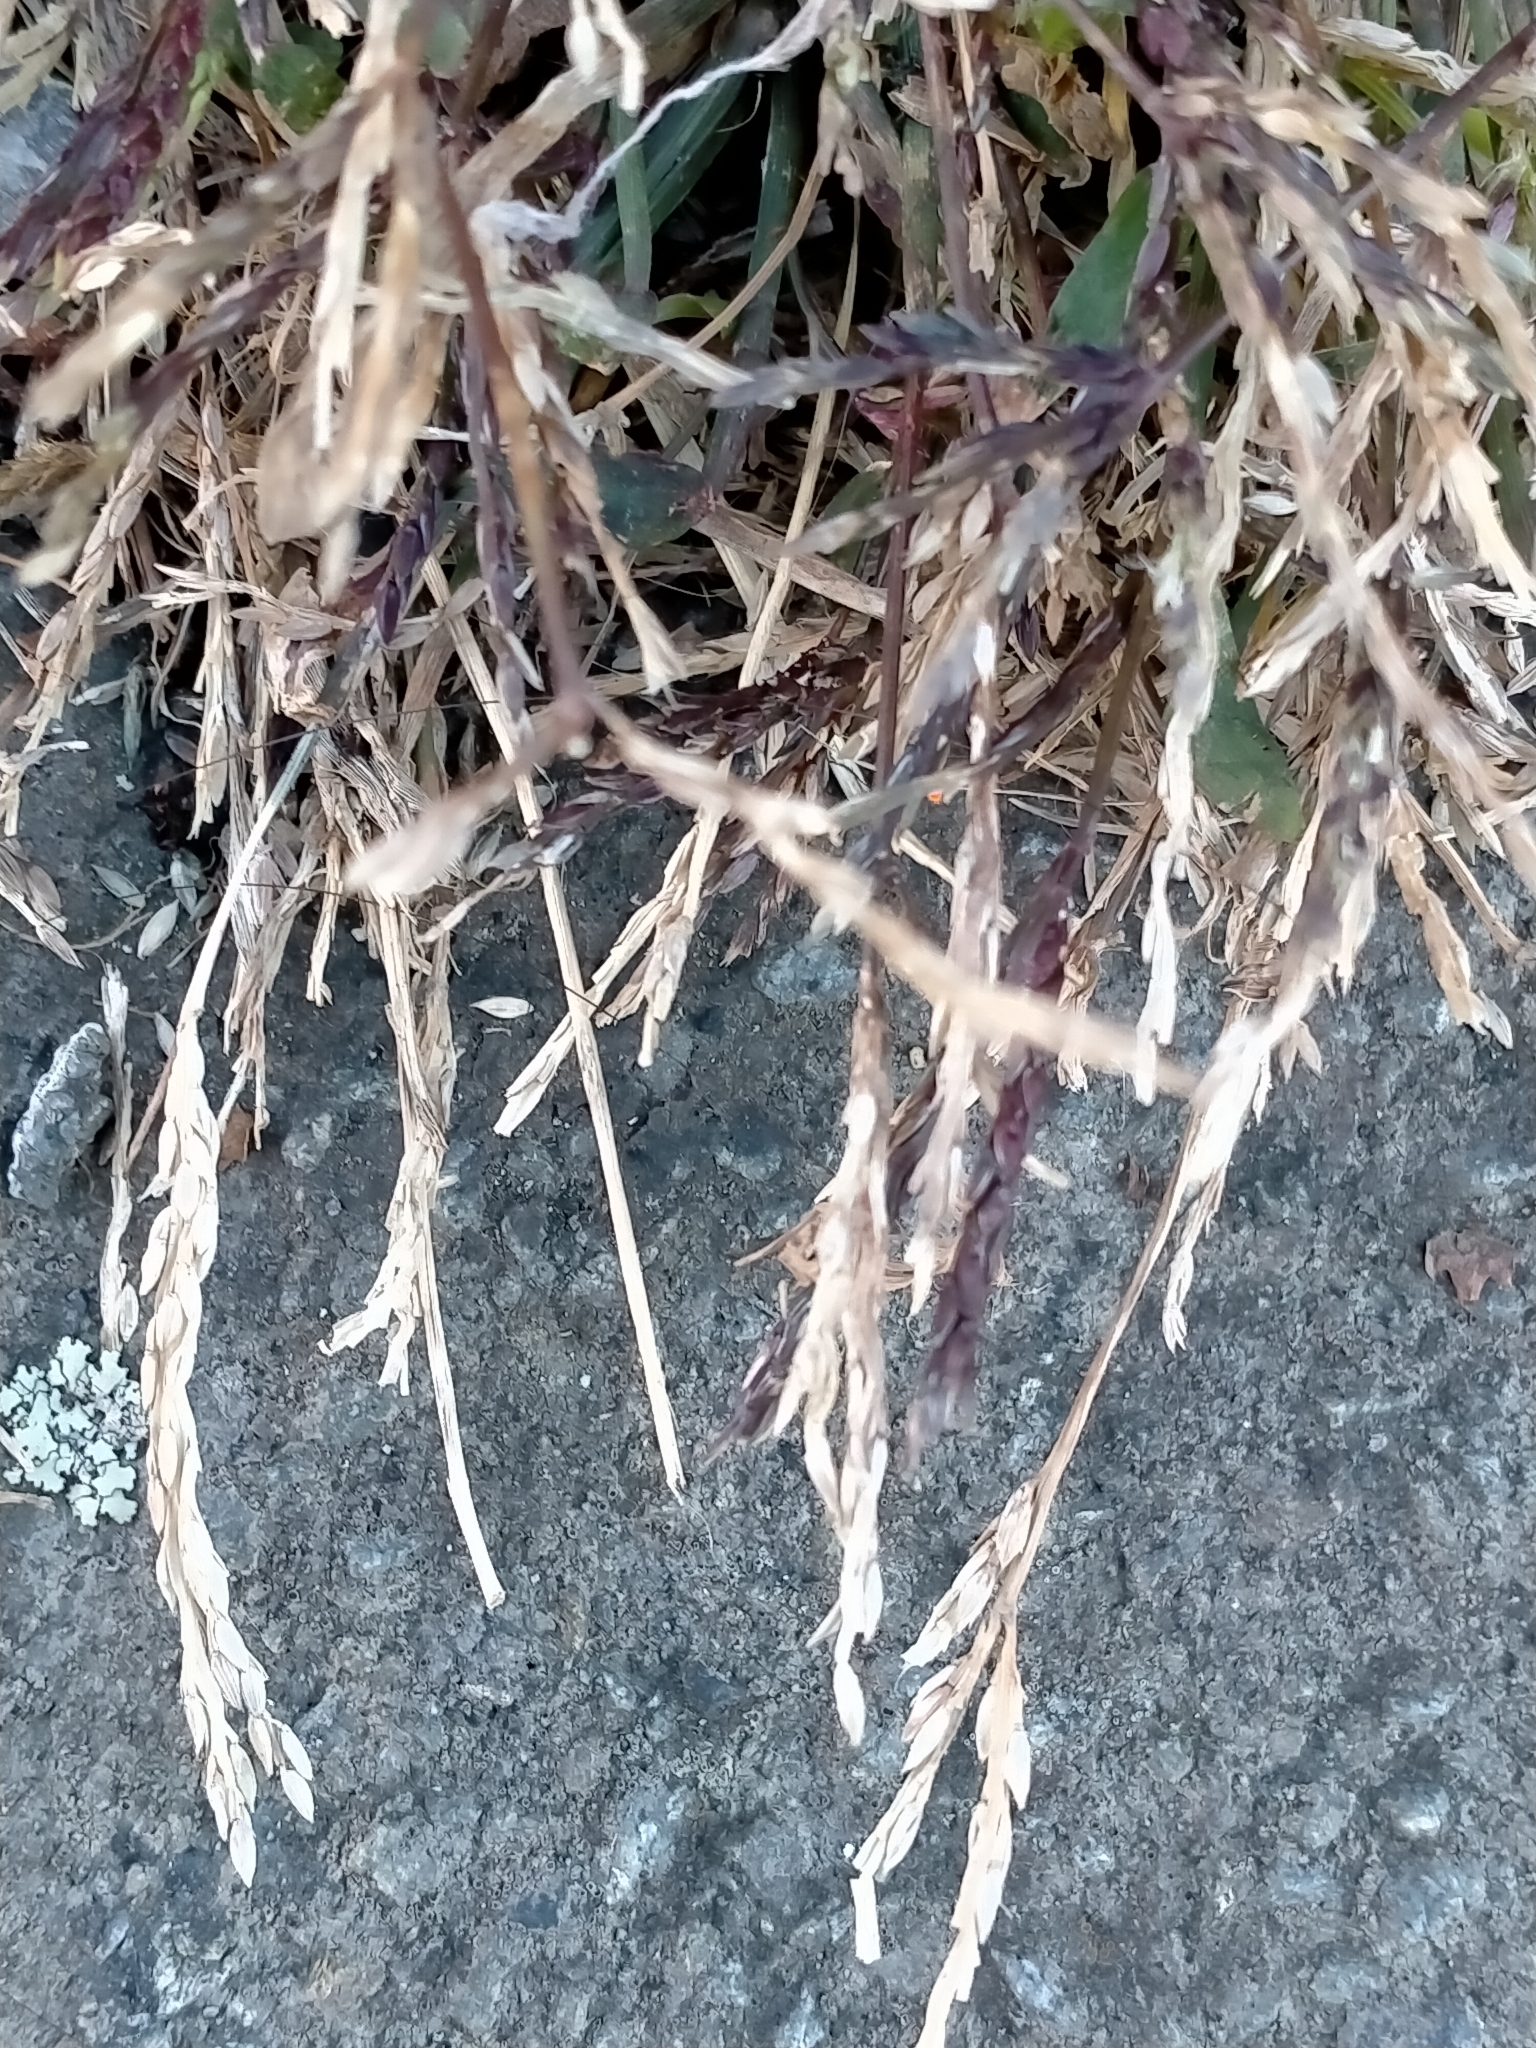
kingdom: Plantae
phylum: Tracheophyta
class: Liliopsida
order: Poales
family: Poaceae
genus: Stenotaphrum
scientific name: Stenotaphrum secundatum
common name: St. augustine grass
